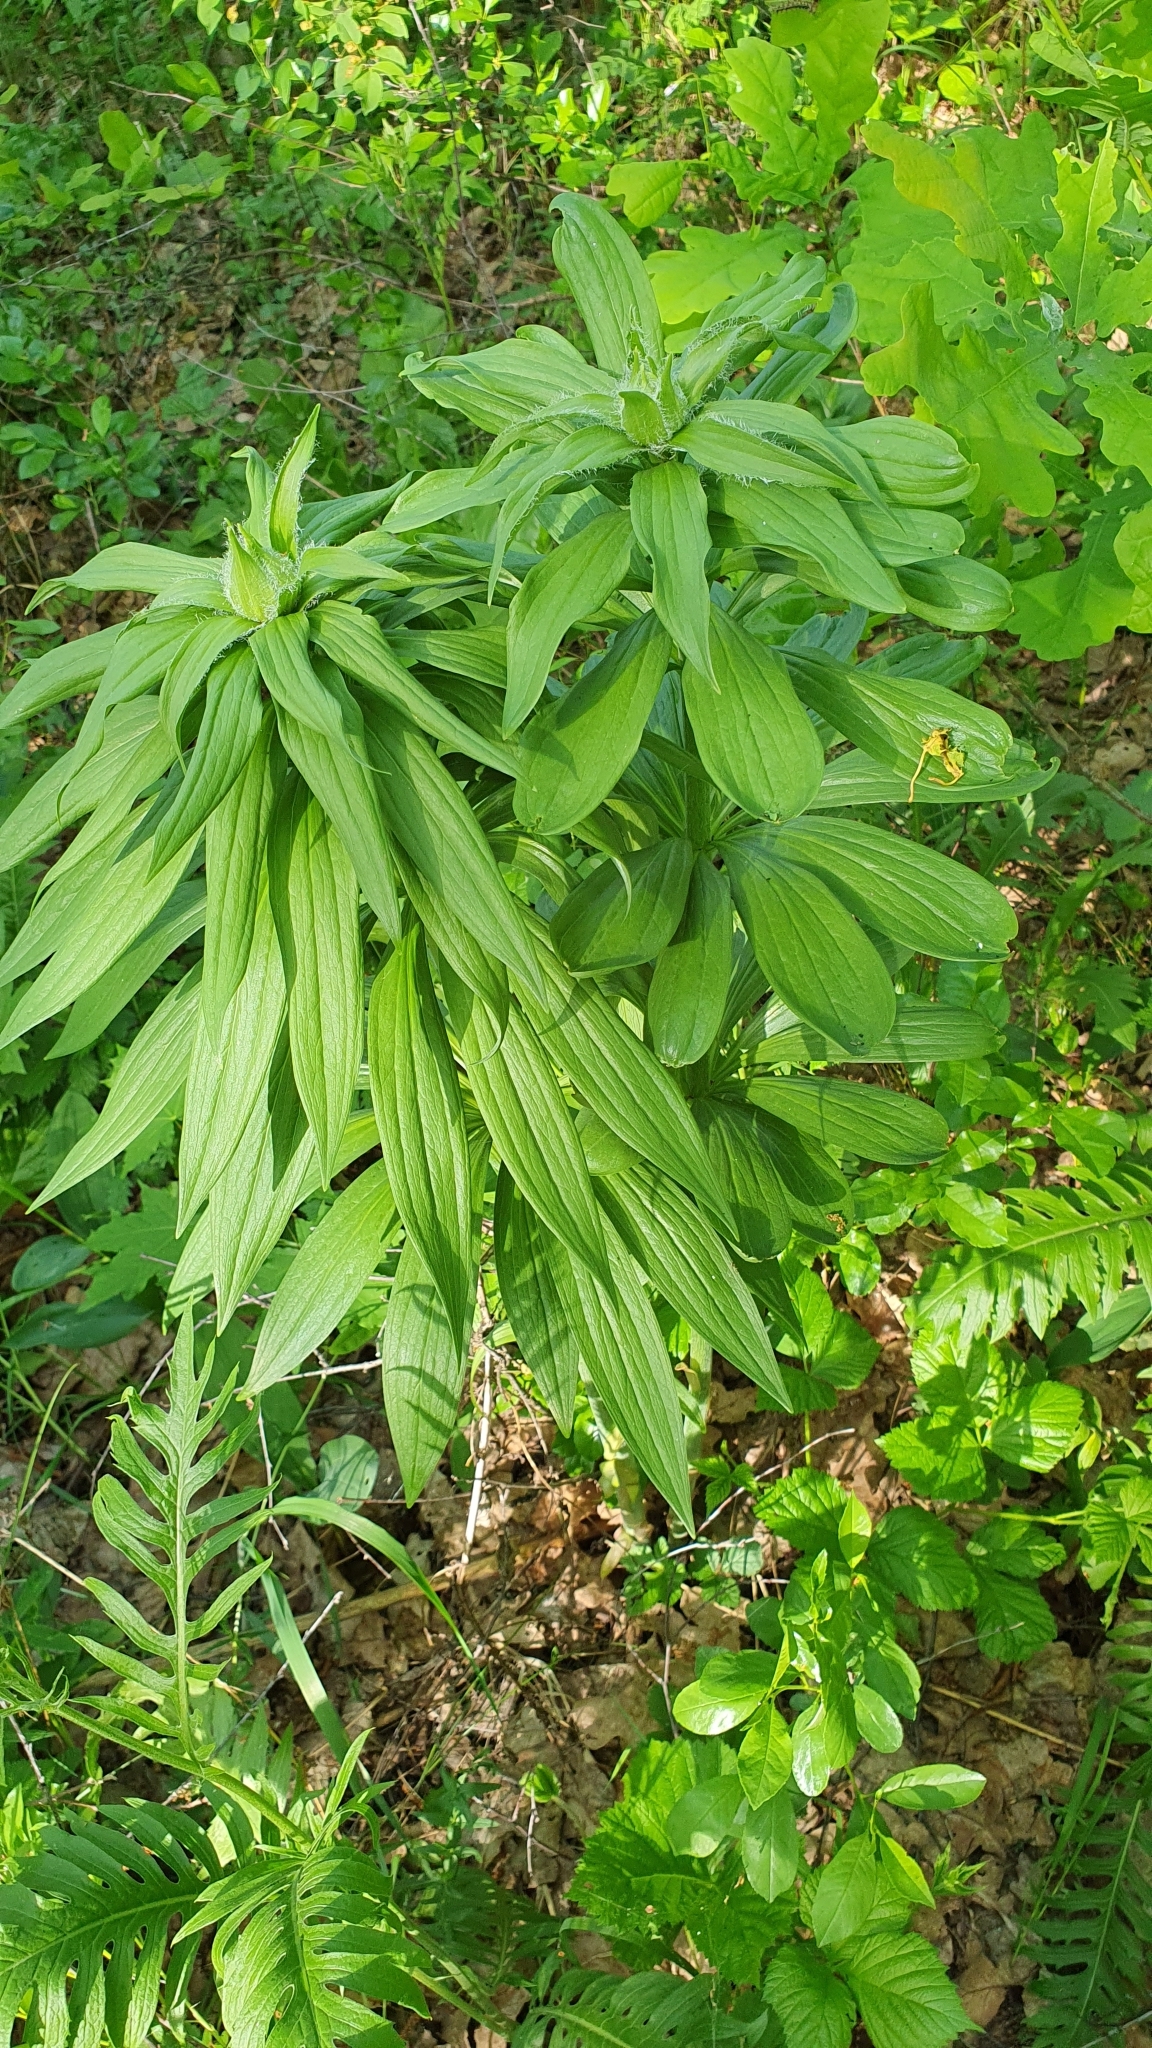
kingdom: Plantae
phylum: Tracheophyta
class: Liliopsida
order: Liliales
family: Liliaceae
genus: Lilium
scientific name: Lilium martagon
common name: Martagon lily
